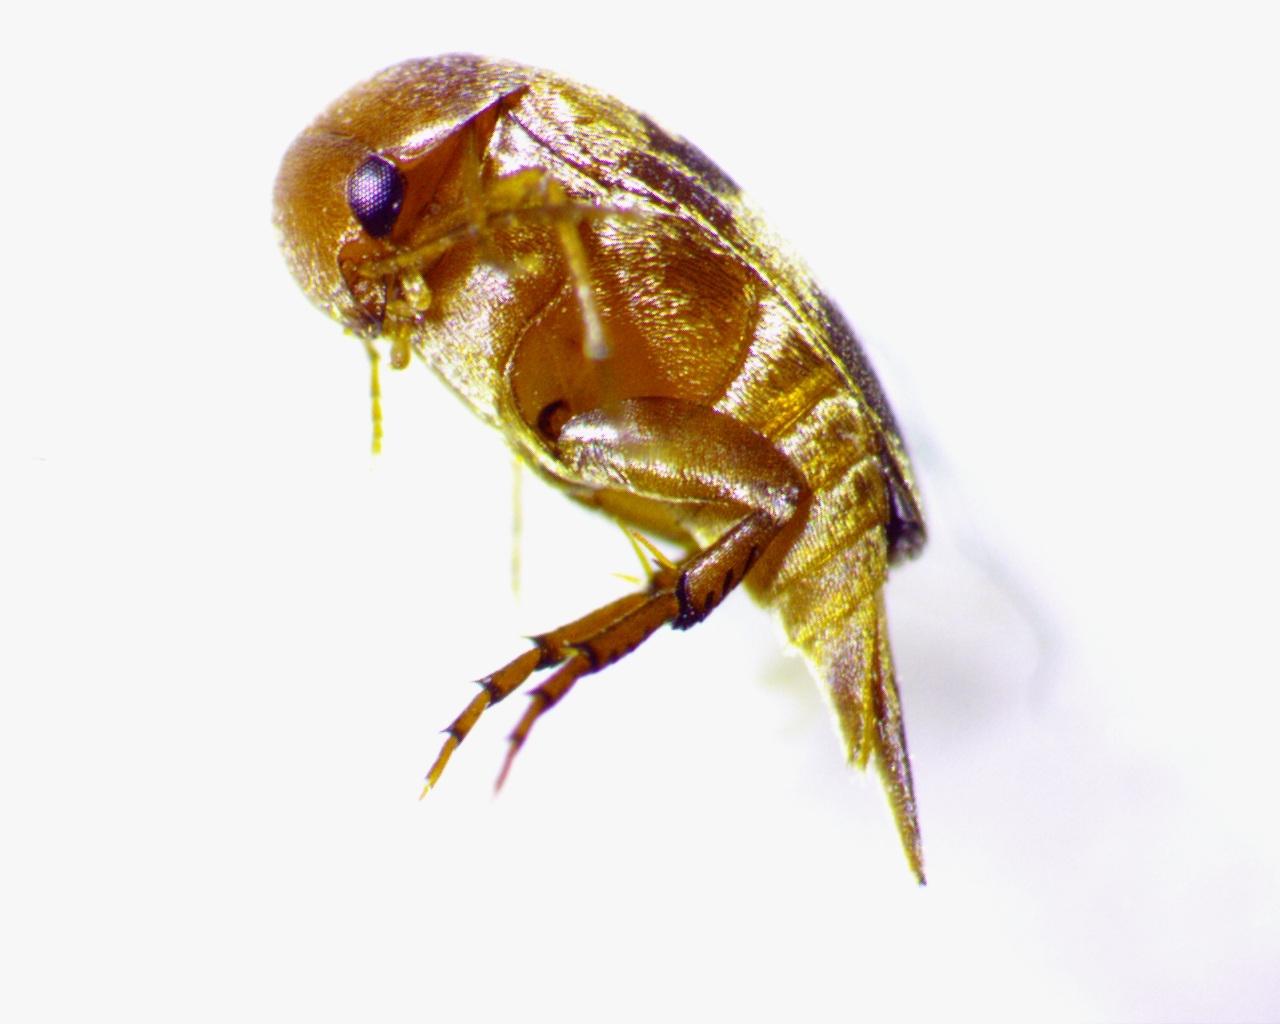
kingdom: Animalia
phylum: Arthropoda
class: Insecta
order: Coleoptera
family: Mordellidae
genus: Falsomordellistena
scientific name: Falsomordellistena liturata
